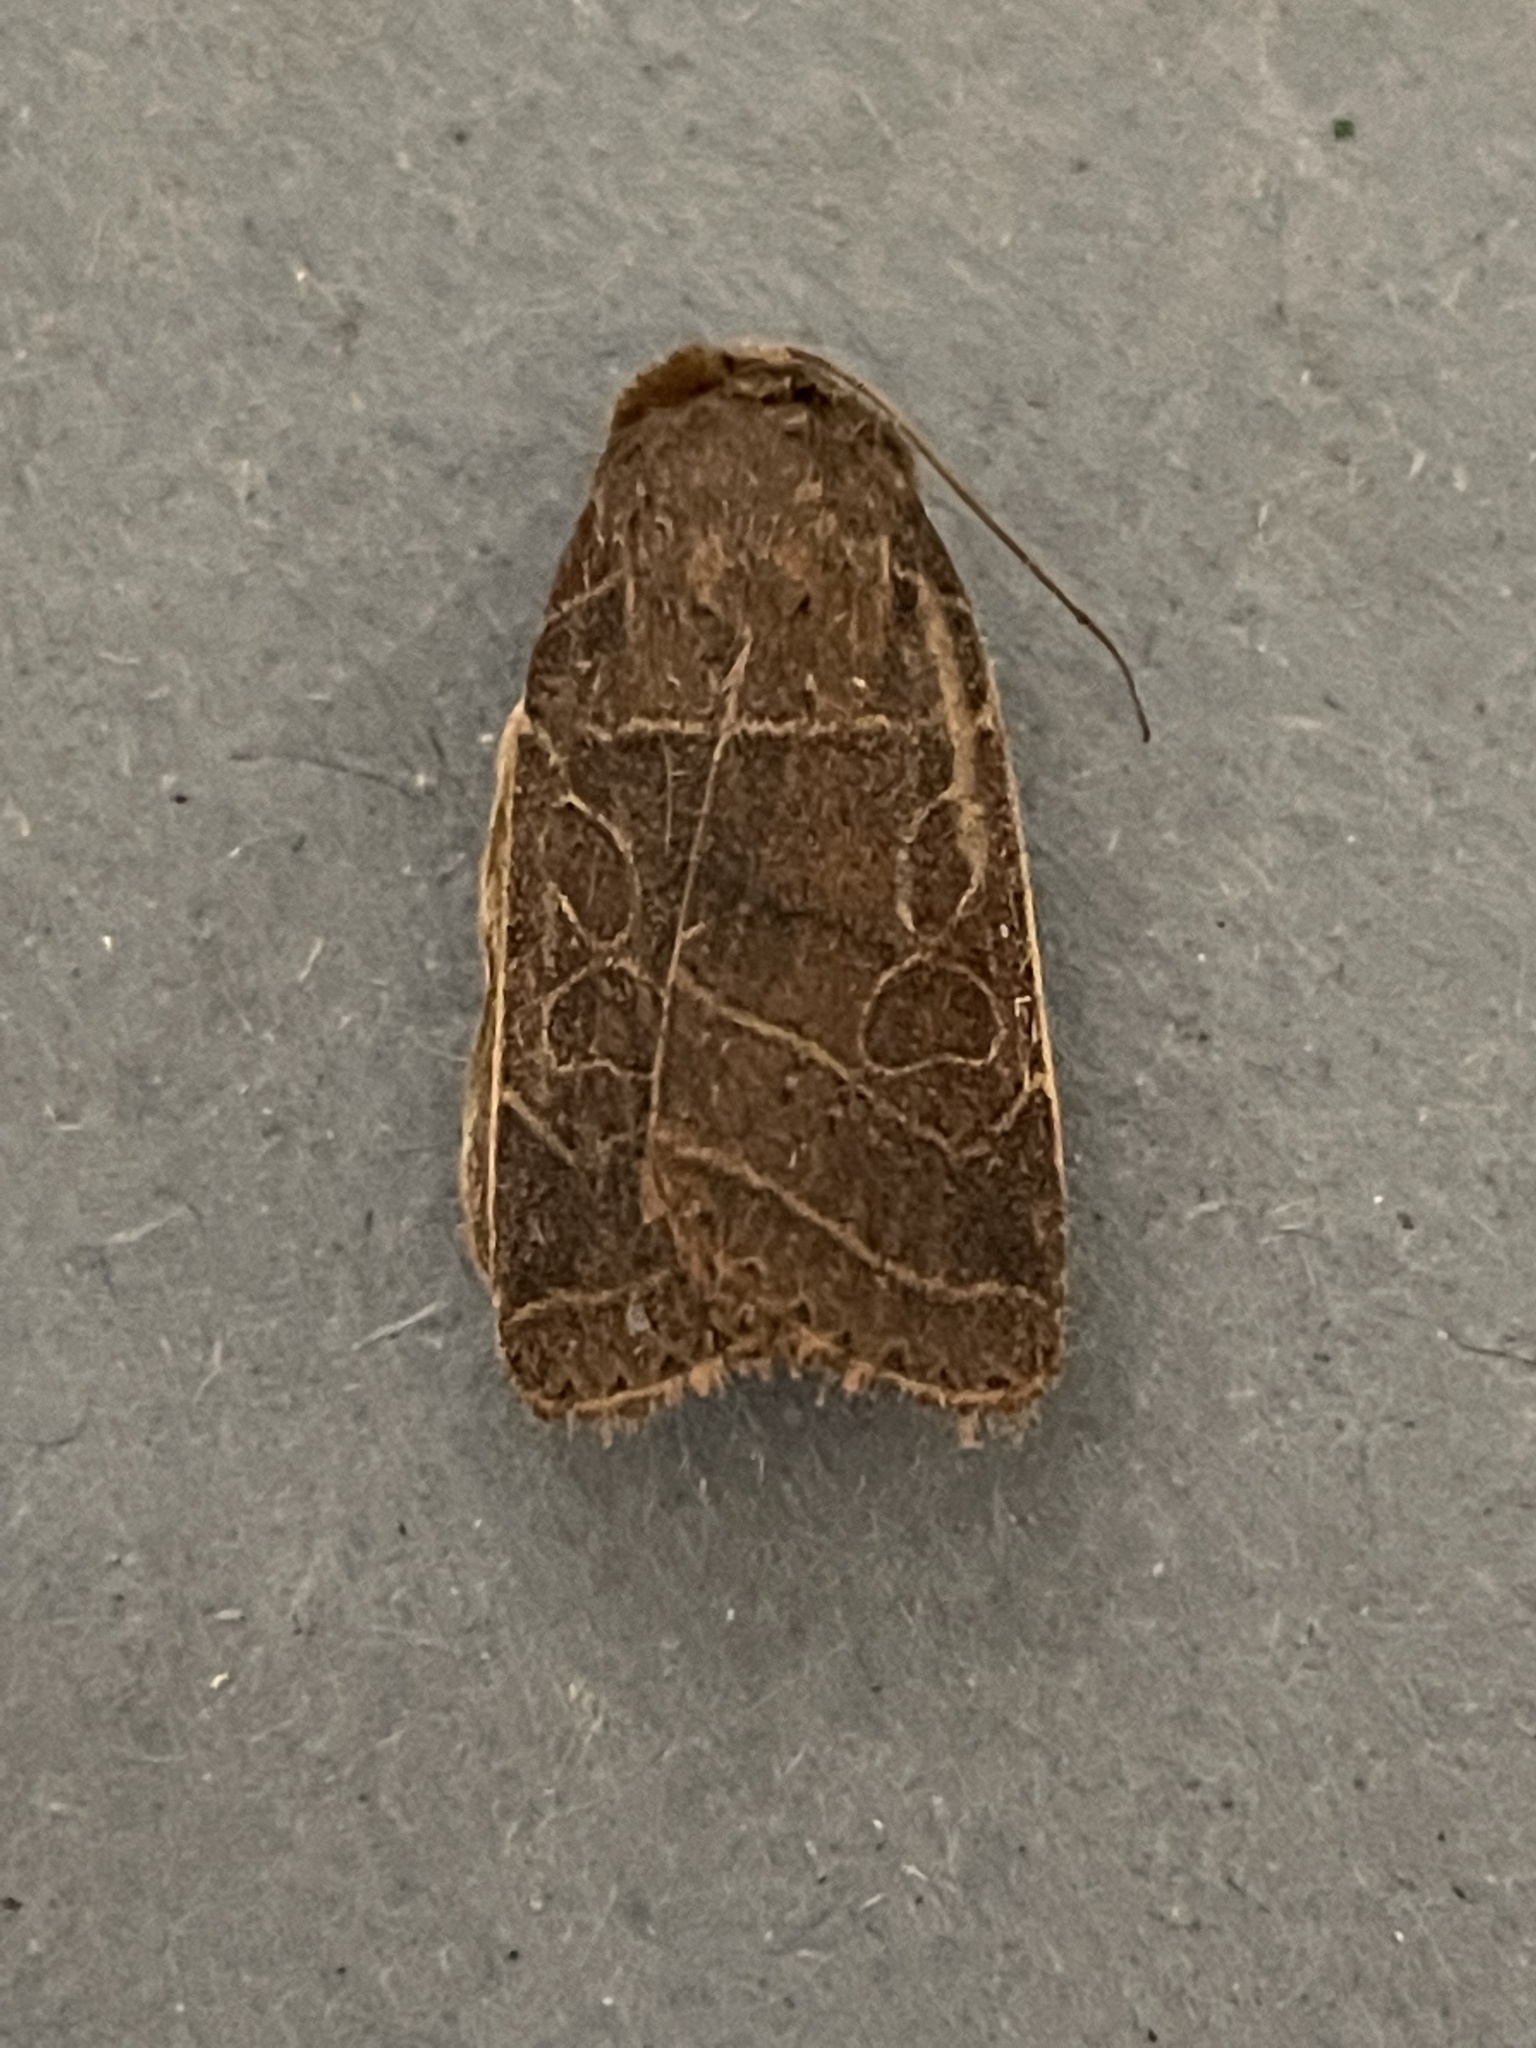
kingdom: Animalia
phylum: Arthropoda
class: Insecta
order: Lepidoptera
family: Noctuidae
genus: Orthodes
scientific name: Orthodes majuscula
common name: Rustic quaker
